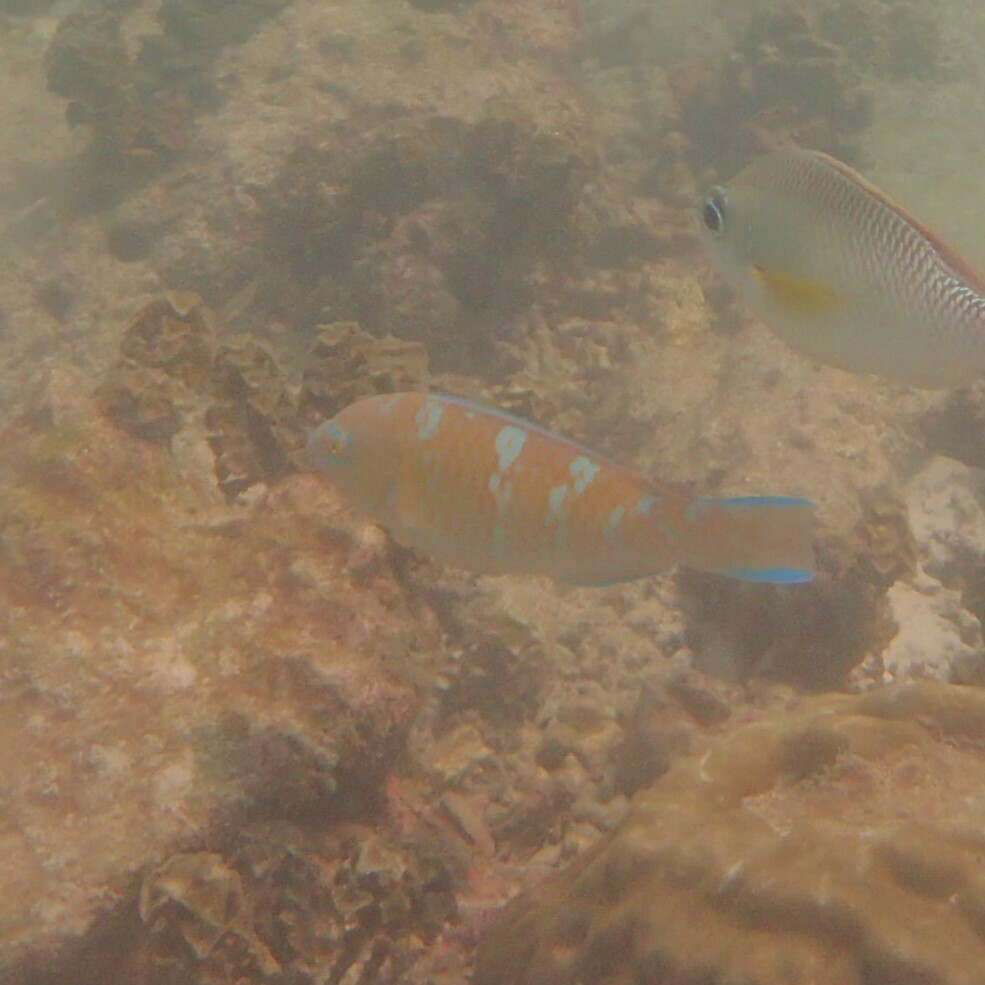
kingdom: Animalia
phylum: Chordata
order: Perciformes
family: Scaridae
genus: Scarus
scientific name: Scarus ghobban
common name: Blue-barred parrotfish
